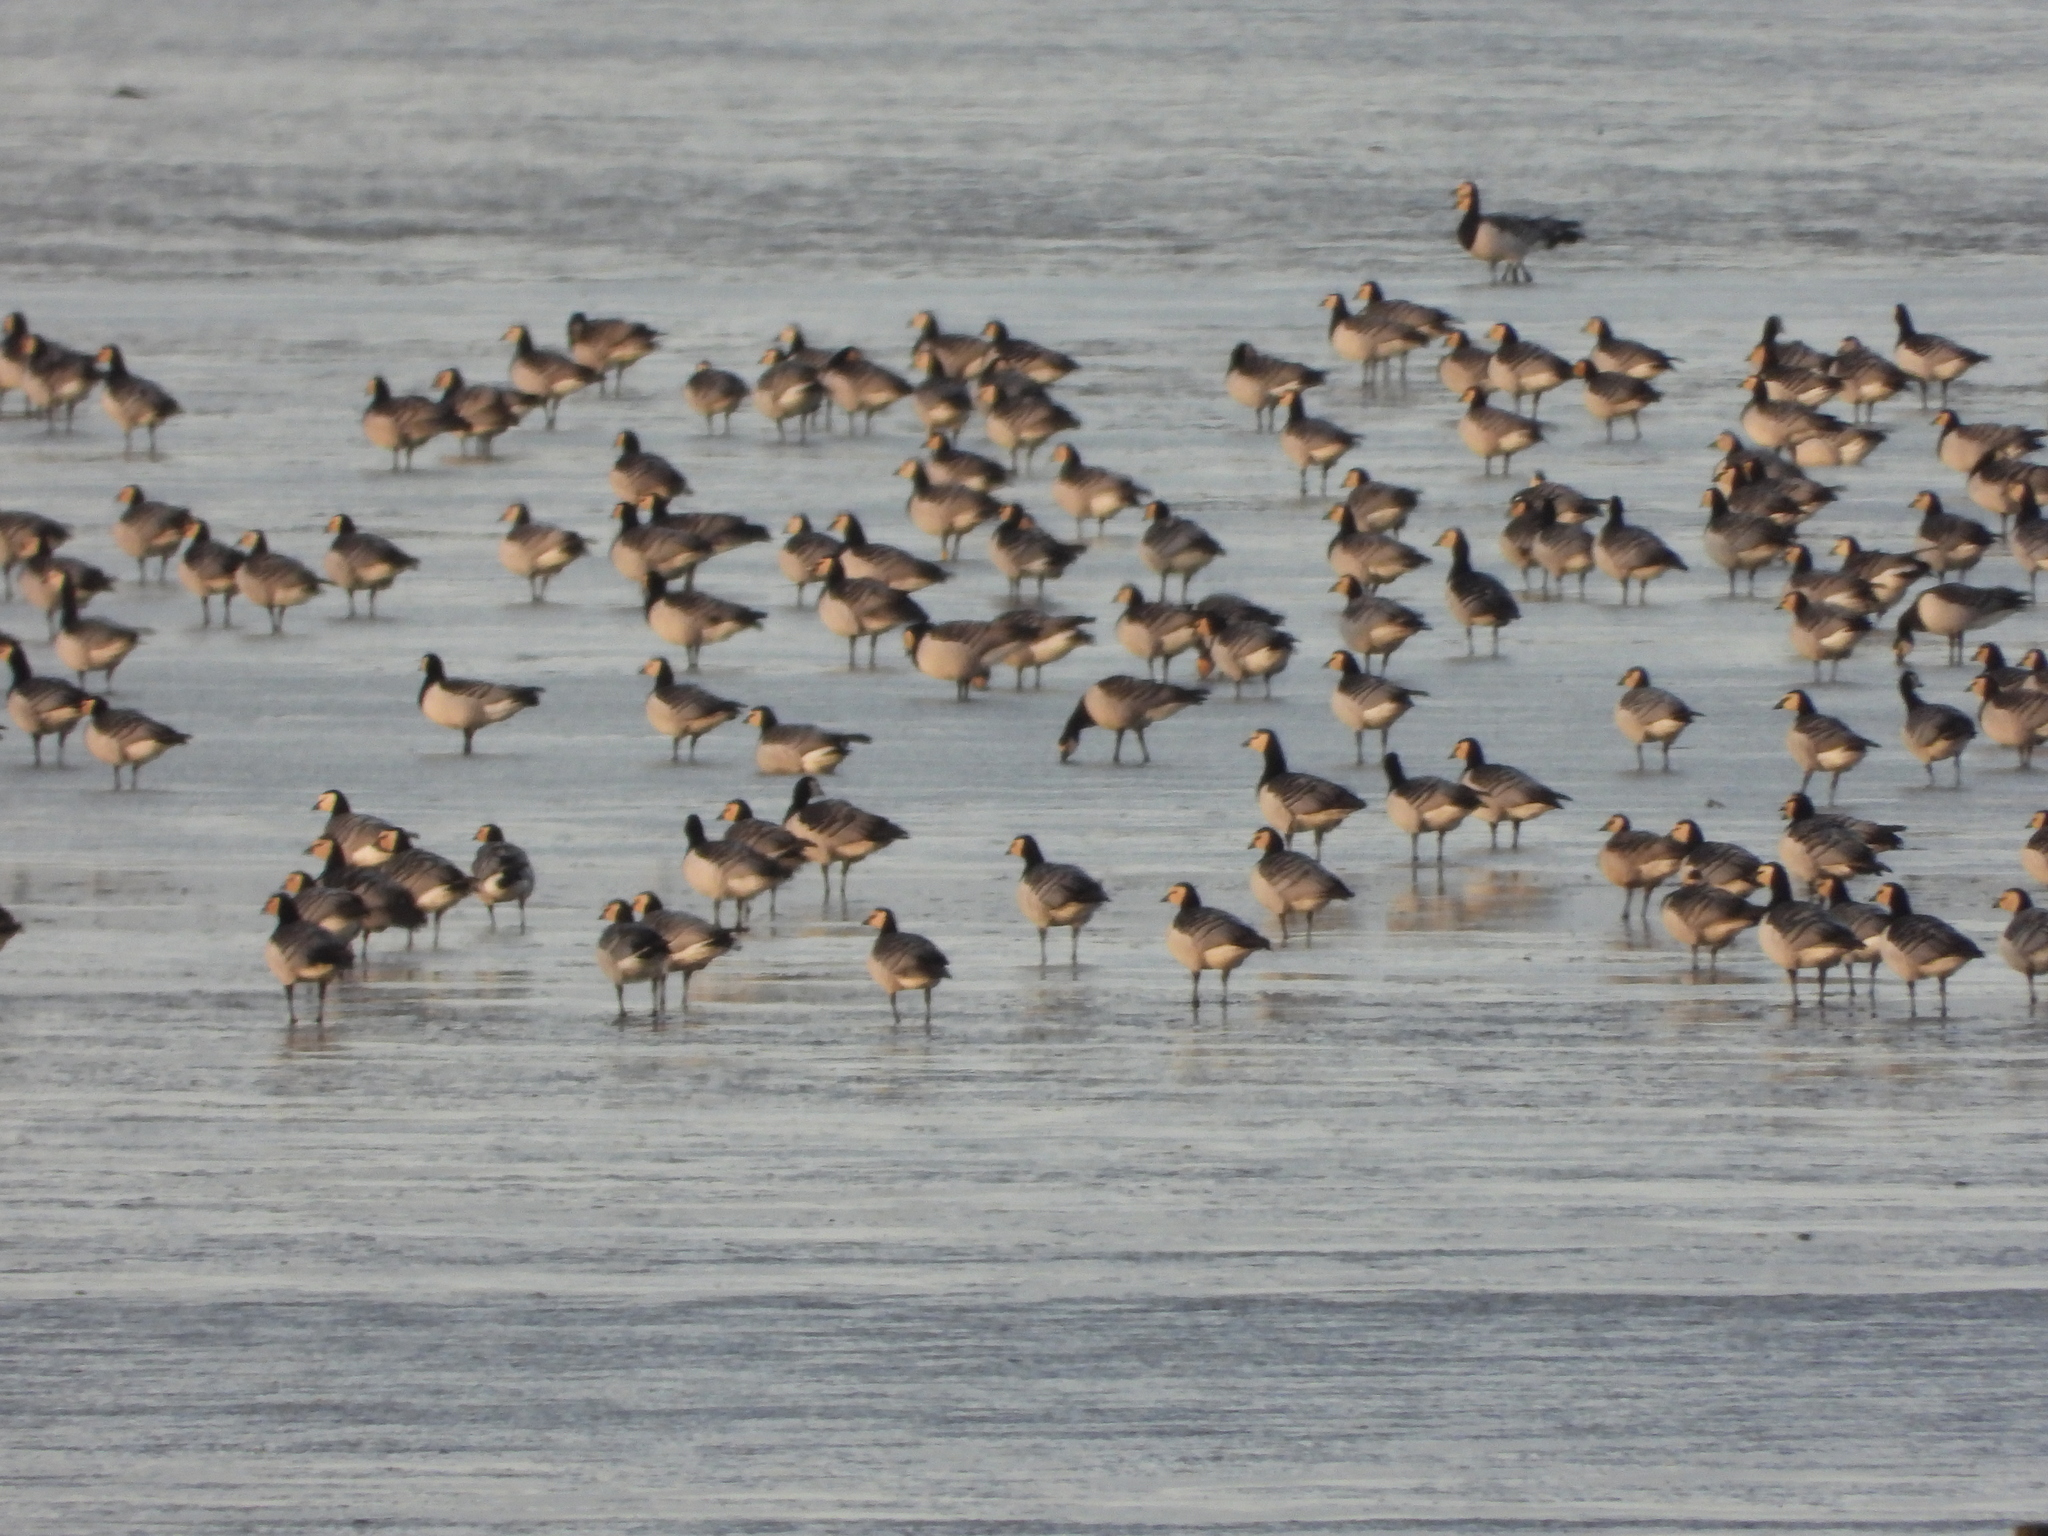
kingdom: Animalia
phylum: Chordata
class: Aves
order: Anseriformes
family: Anatidae
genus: Branta
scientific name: Branta leucopsis
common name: Barnacle goose
